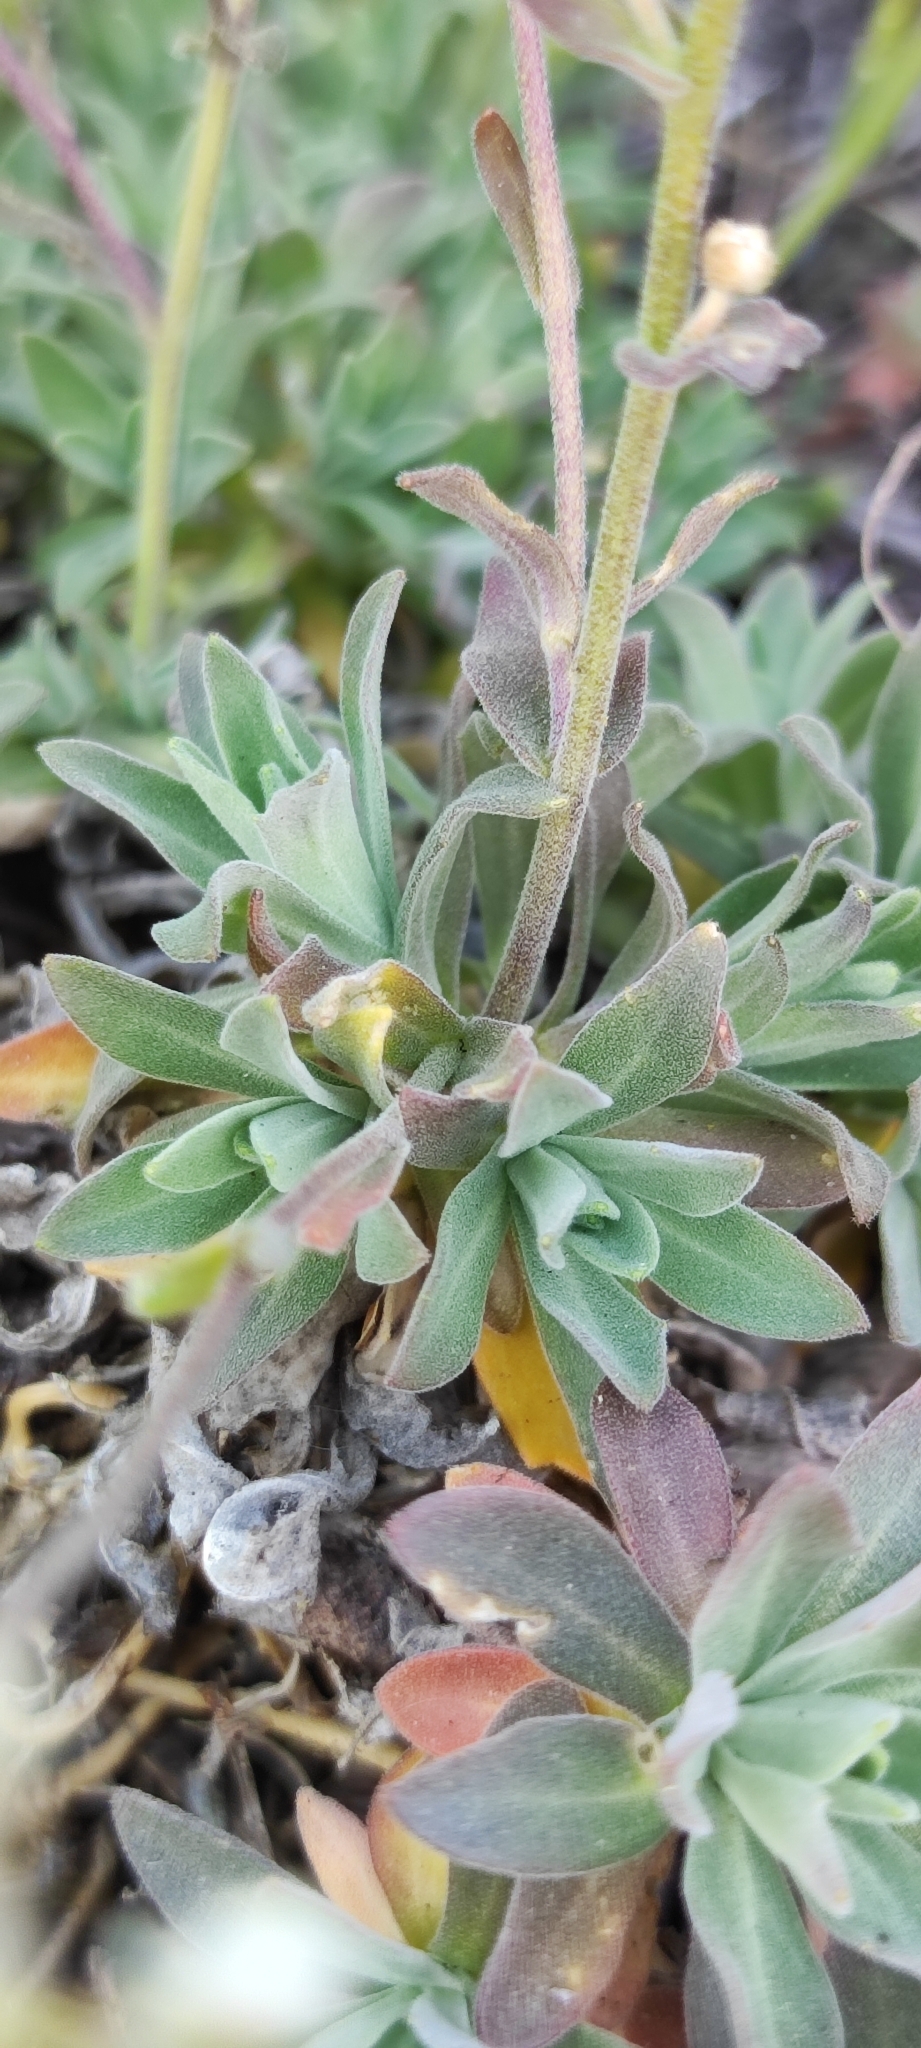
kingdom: Plantae
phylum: Tracheophyta
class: Magnoliopsida
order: Brassicales
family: Brassicaceae
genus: Draba
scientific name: Draba hyperborea
